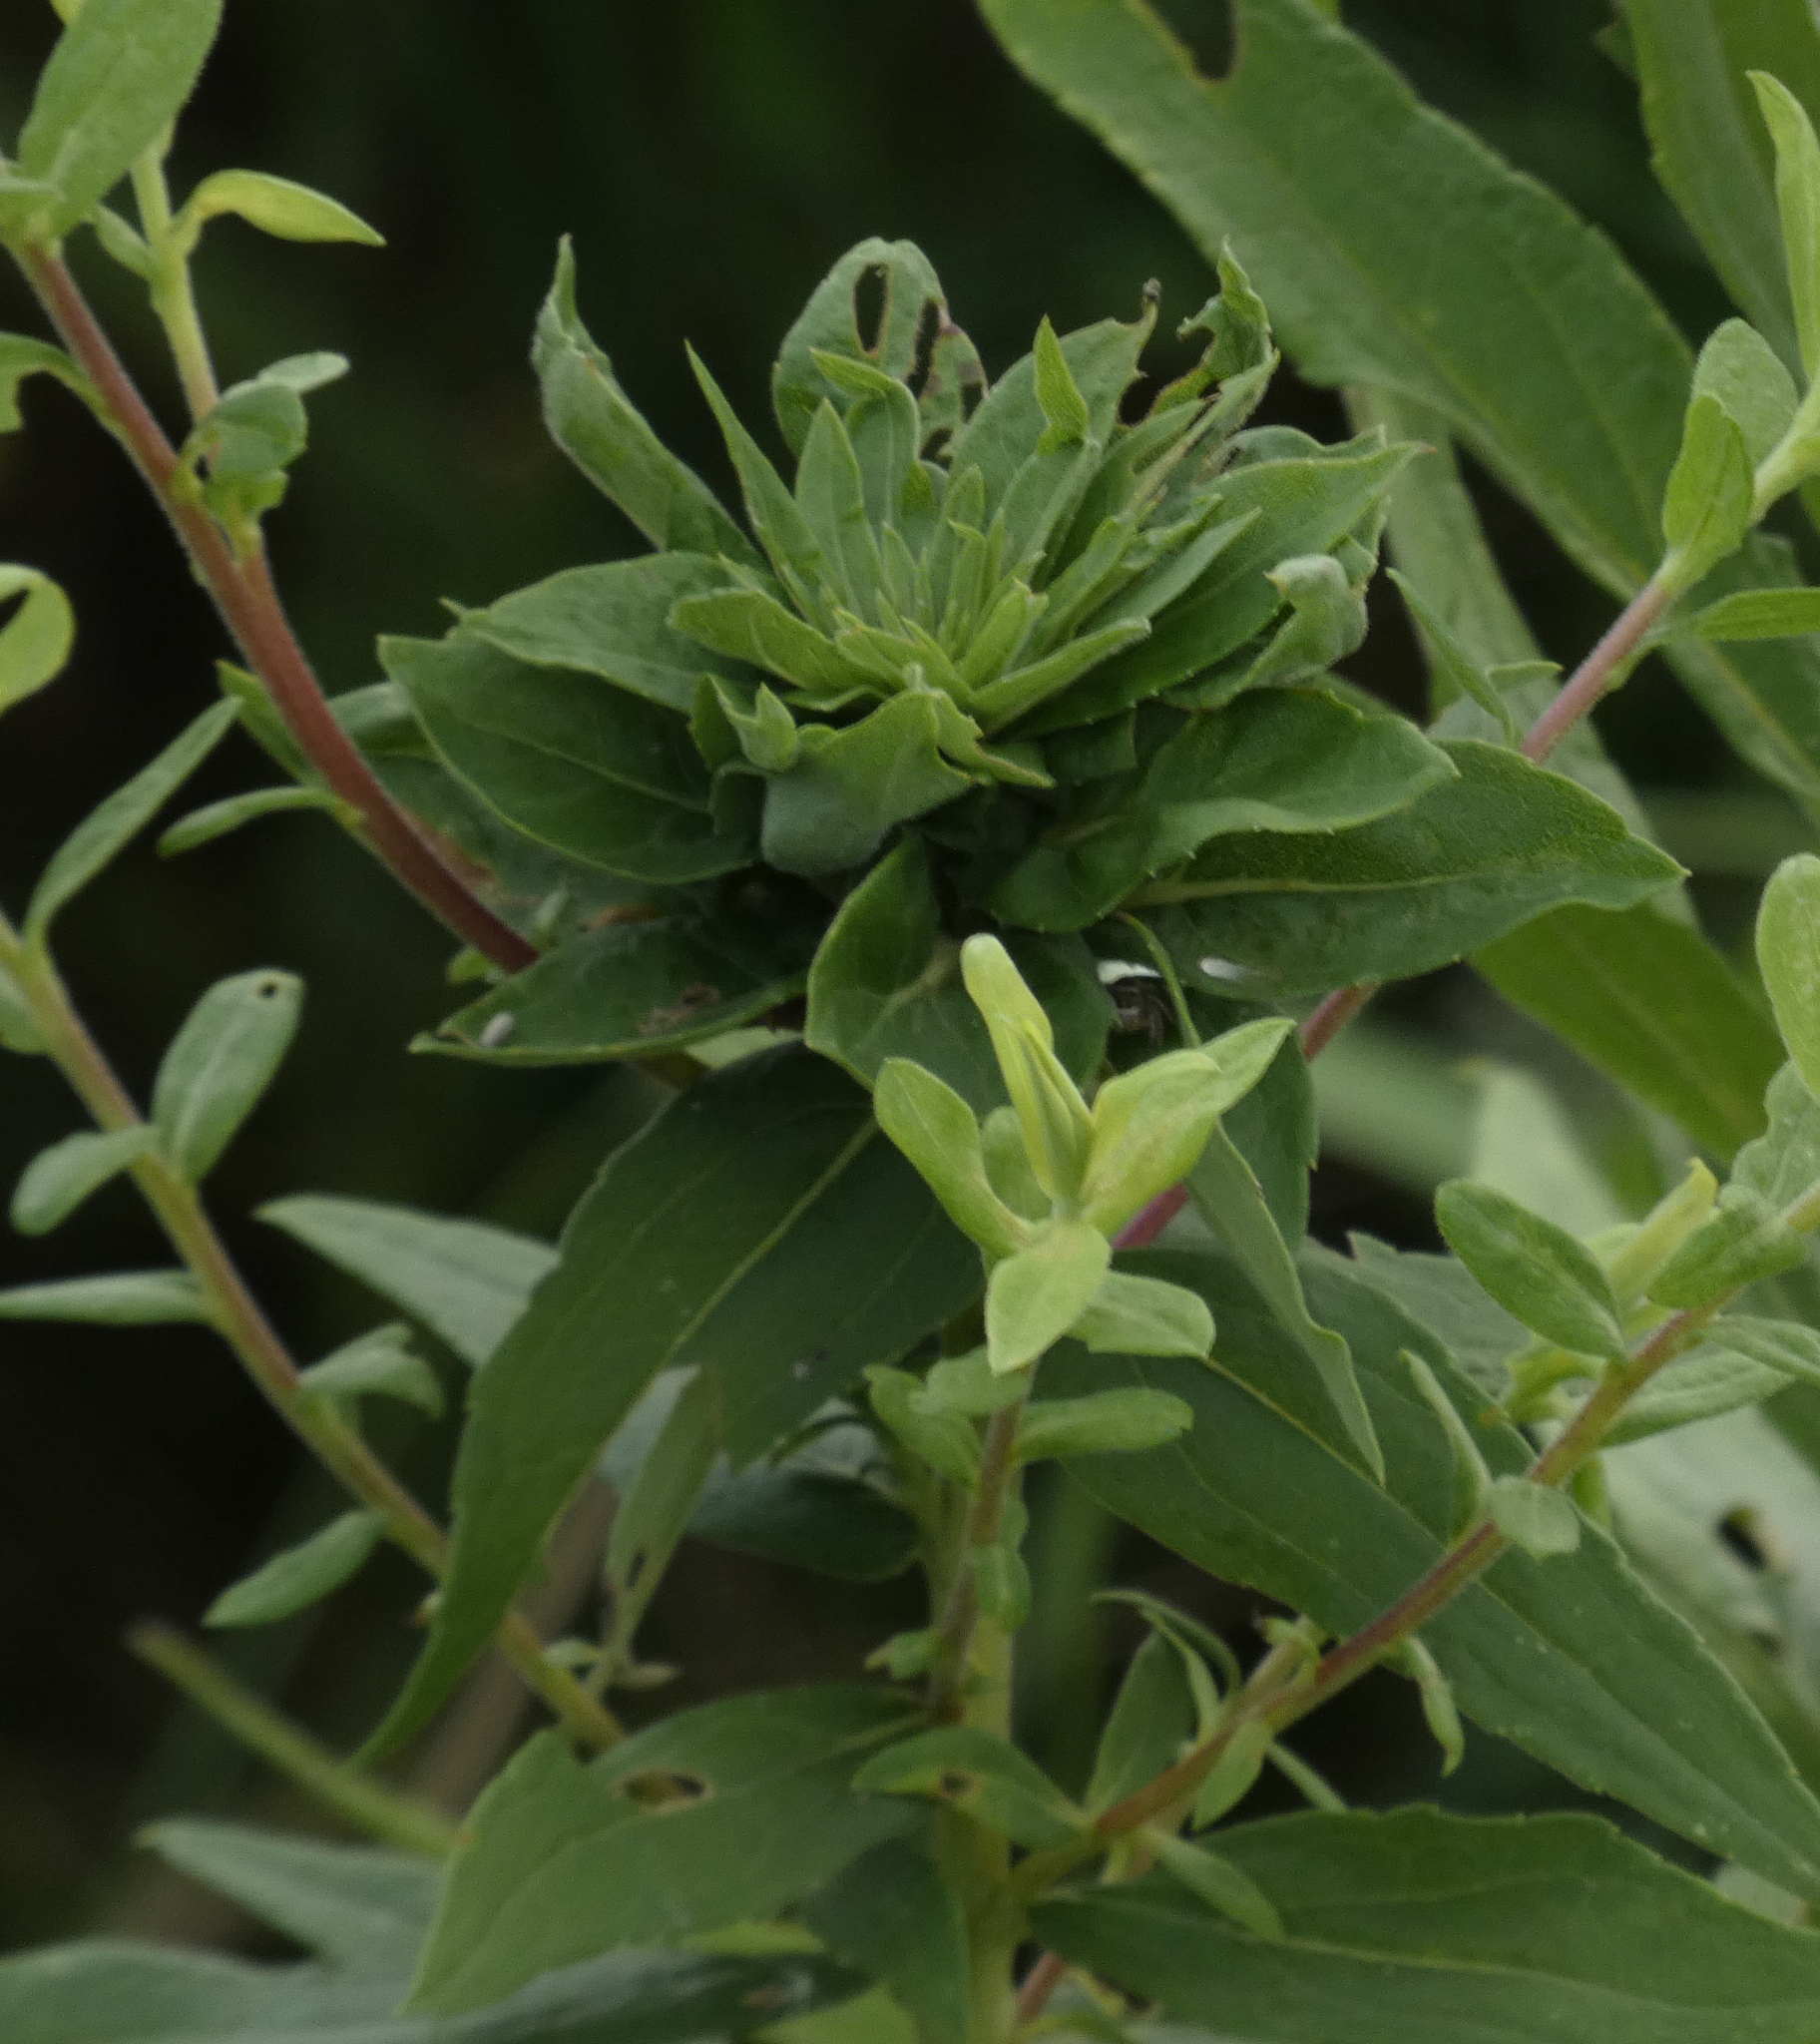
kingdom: Animalia
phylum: Arthropoda
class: Insecta
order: Diptera
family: Cecidomyiidae
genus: Rhopalomyia
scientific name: Rhopalomyia solidaginis
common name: Goldenrod bunch gall midge
